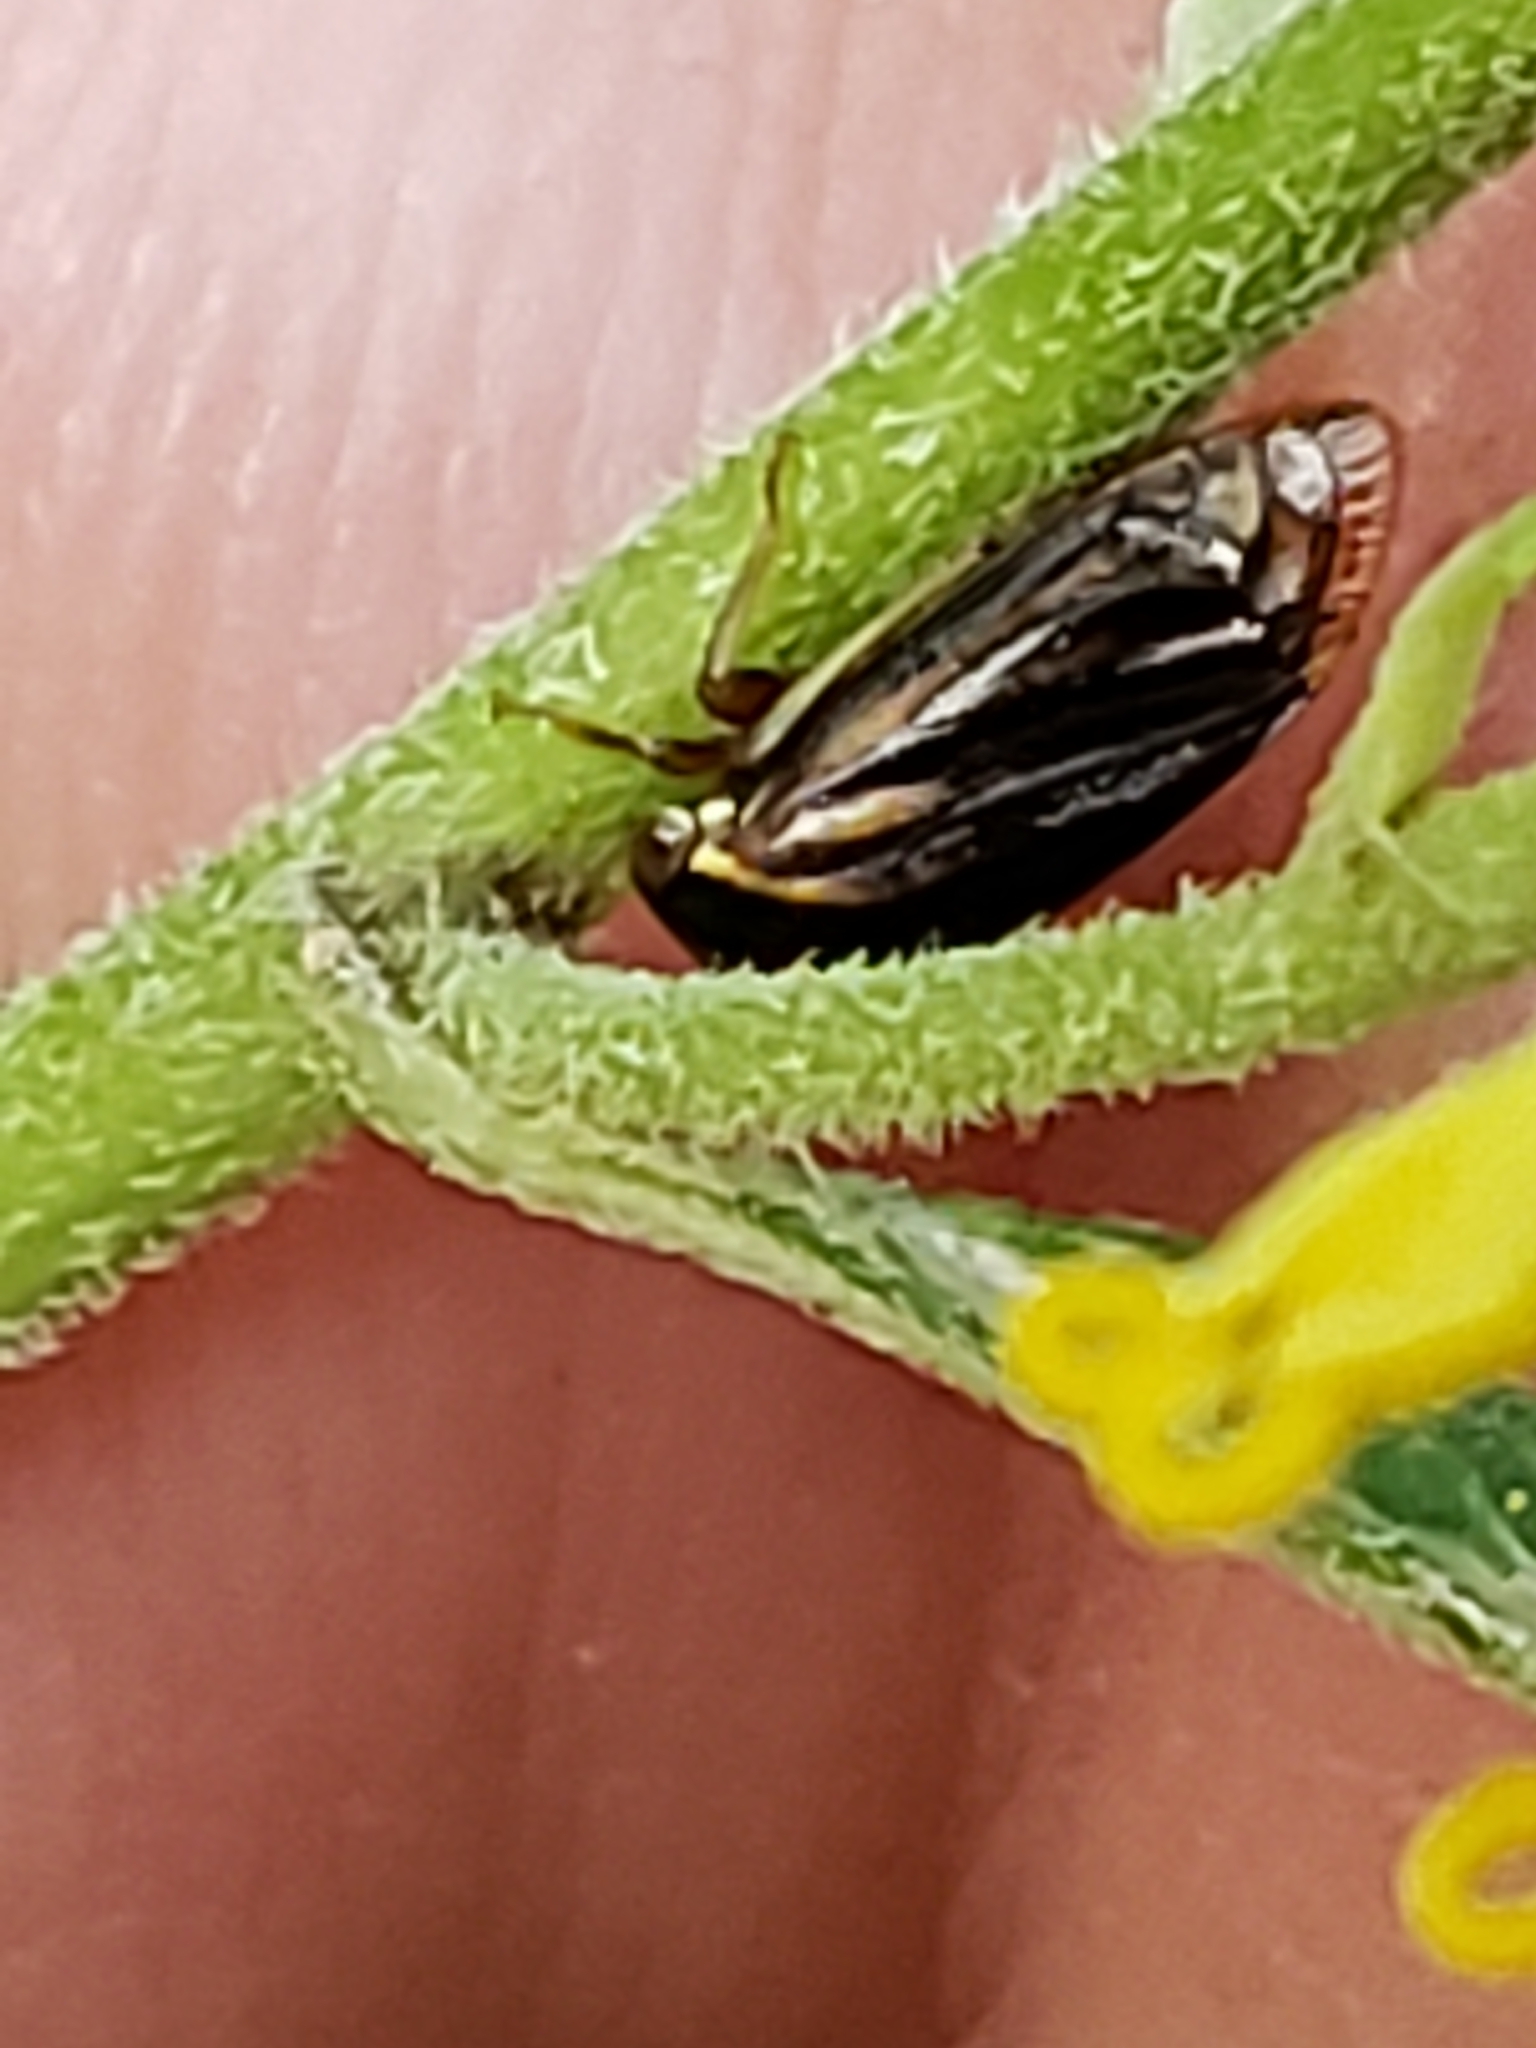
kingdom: Animalia
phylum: Arthropoda
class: Insecta
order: Hemiptera
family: Membracidae
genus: Acutalis
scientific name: Acutalis tartarea
